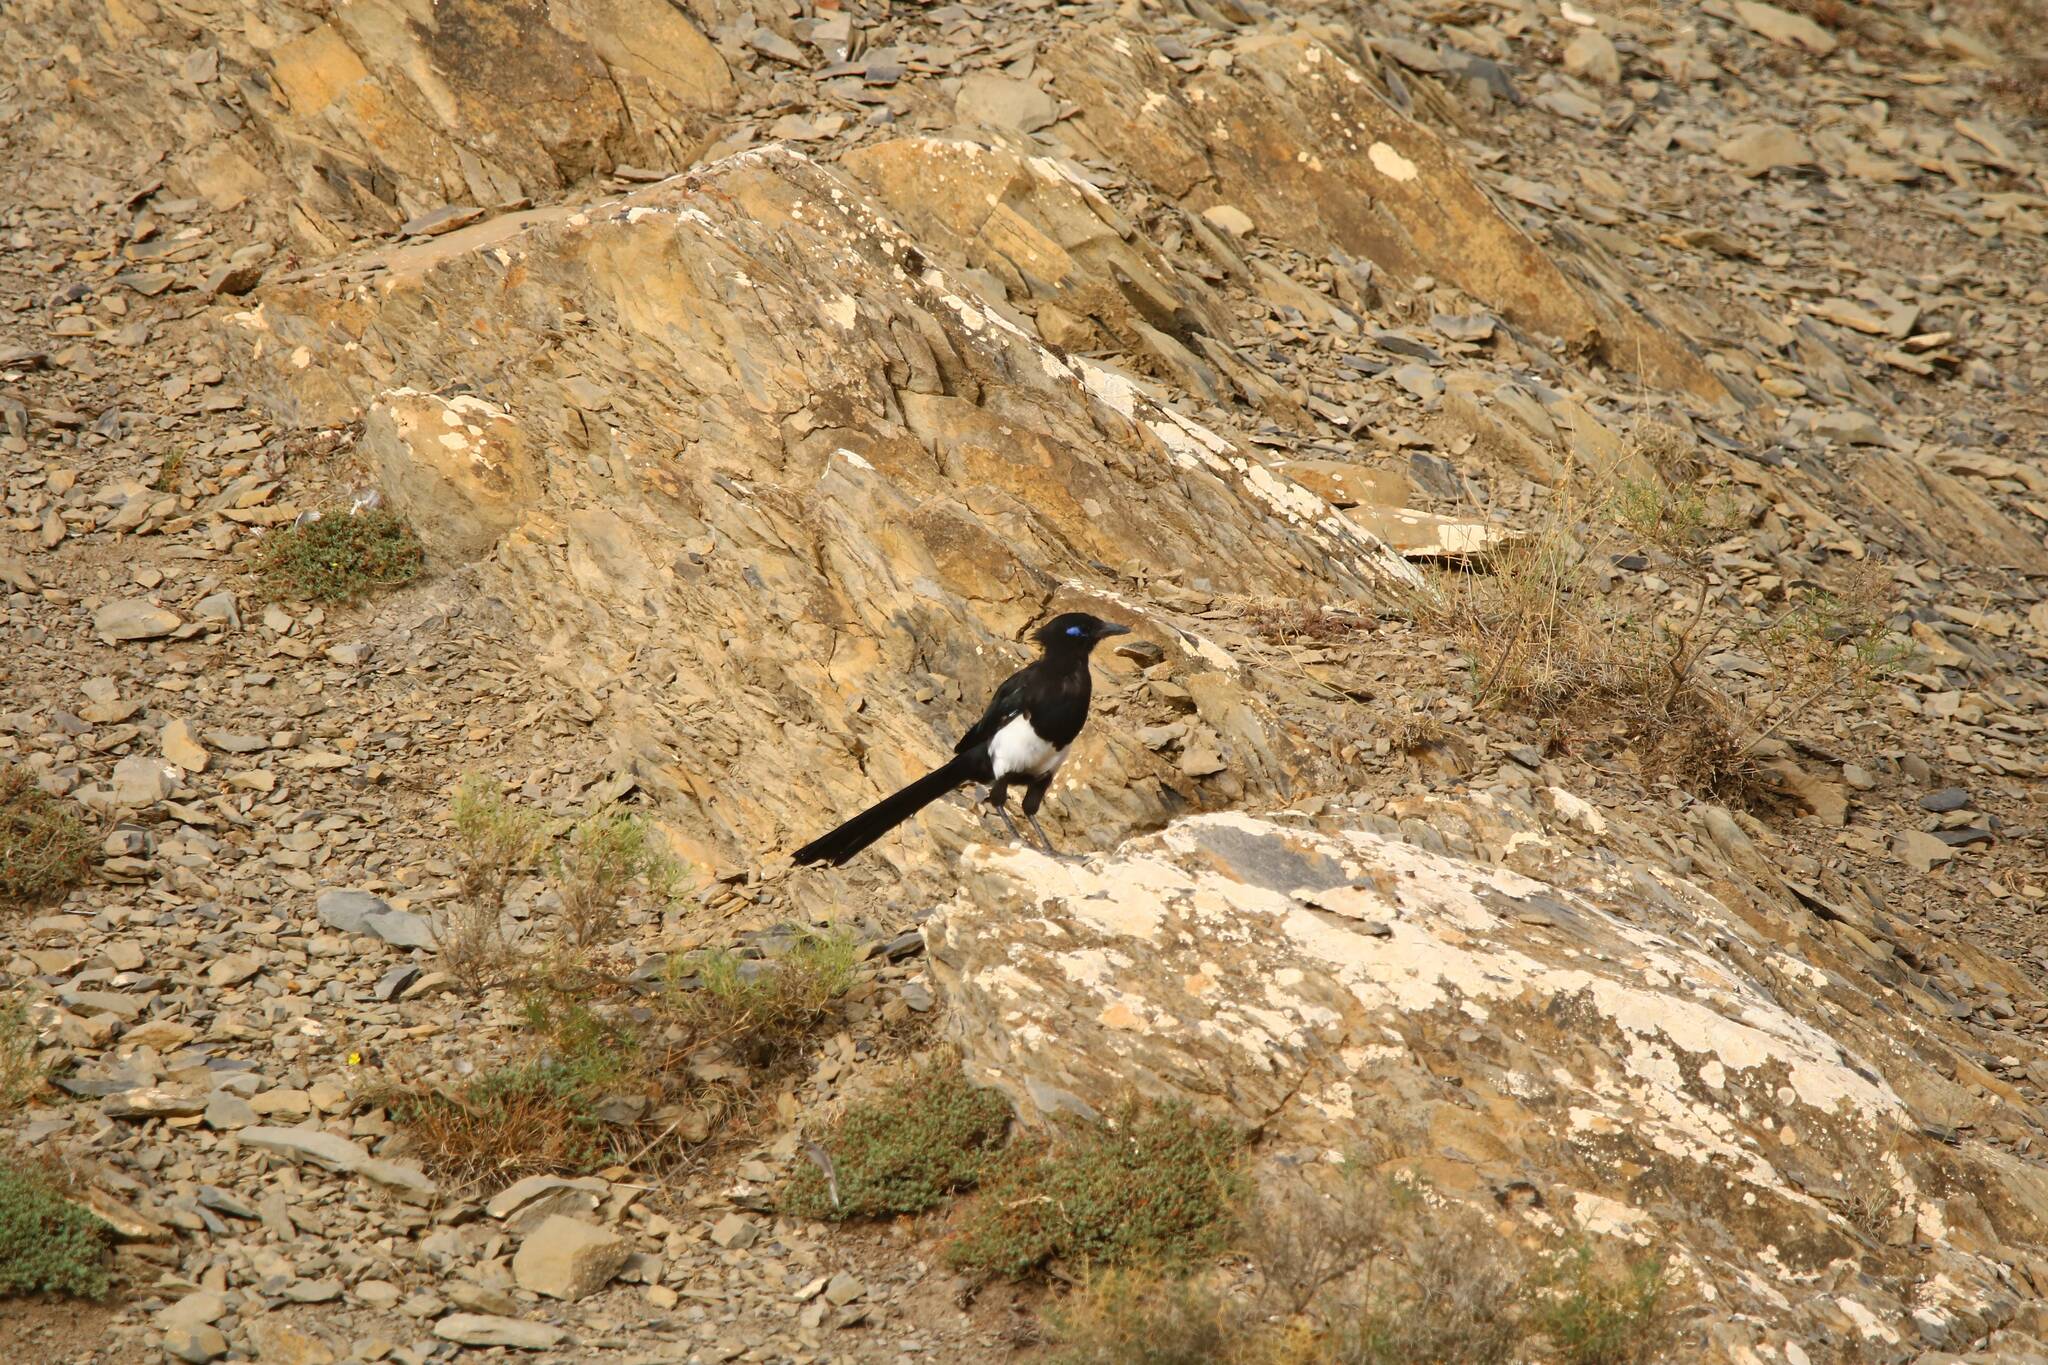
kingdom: Animalia
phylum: Chordata
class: Aves
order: Passeriformes
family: Corvidae
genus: Pica
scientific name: Pica mauritanica
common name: Maghreb magpie
